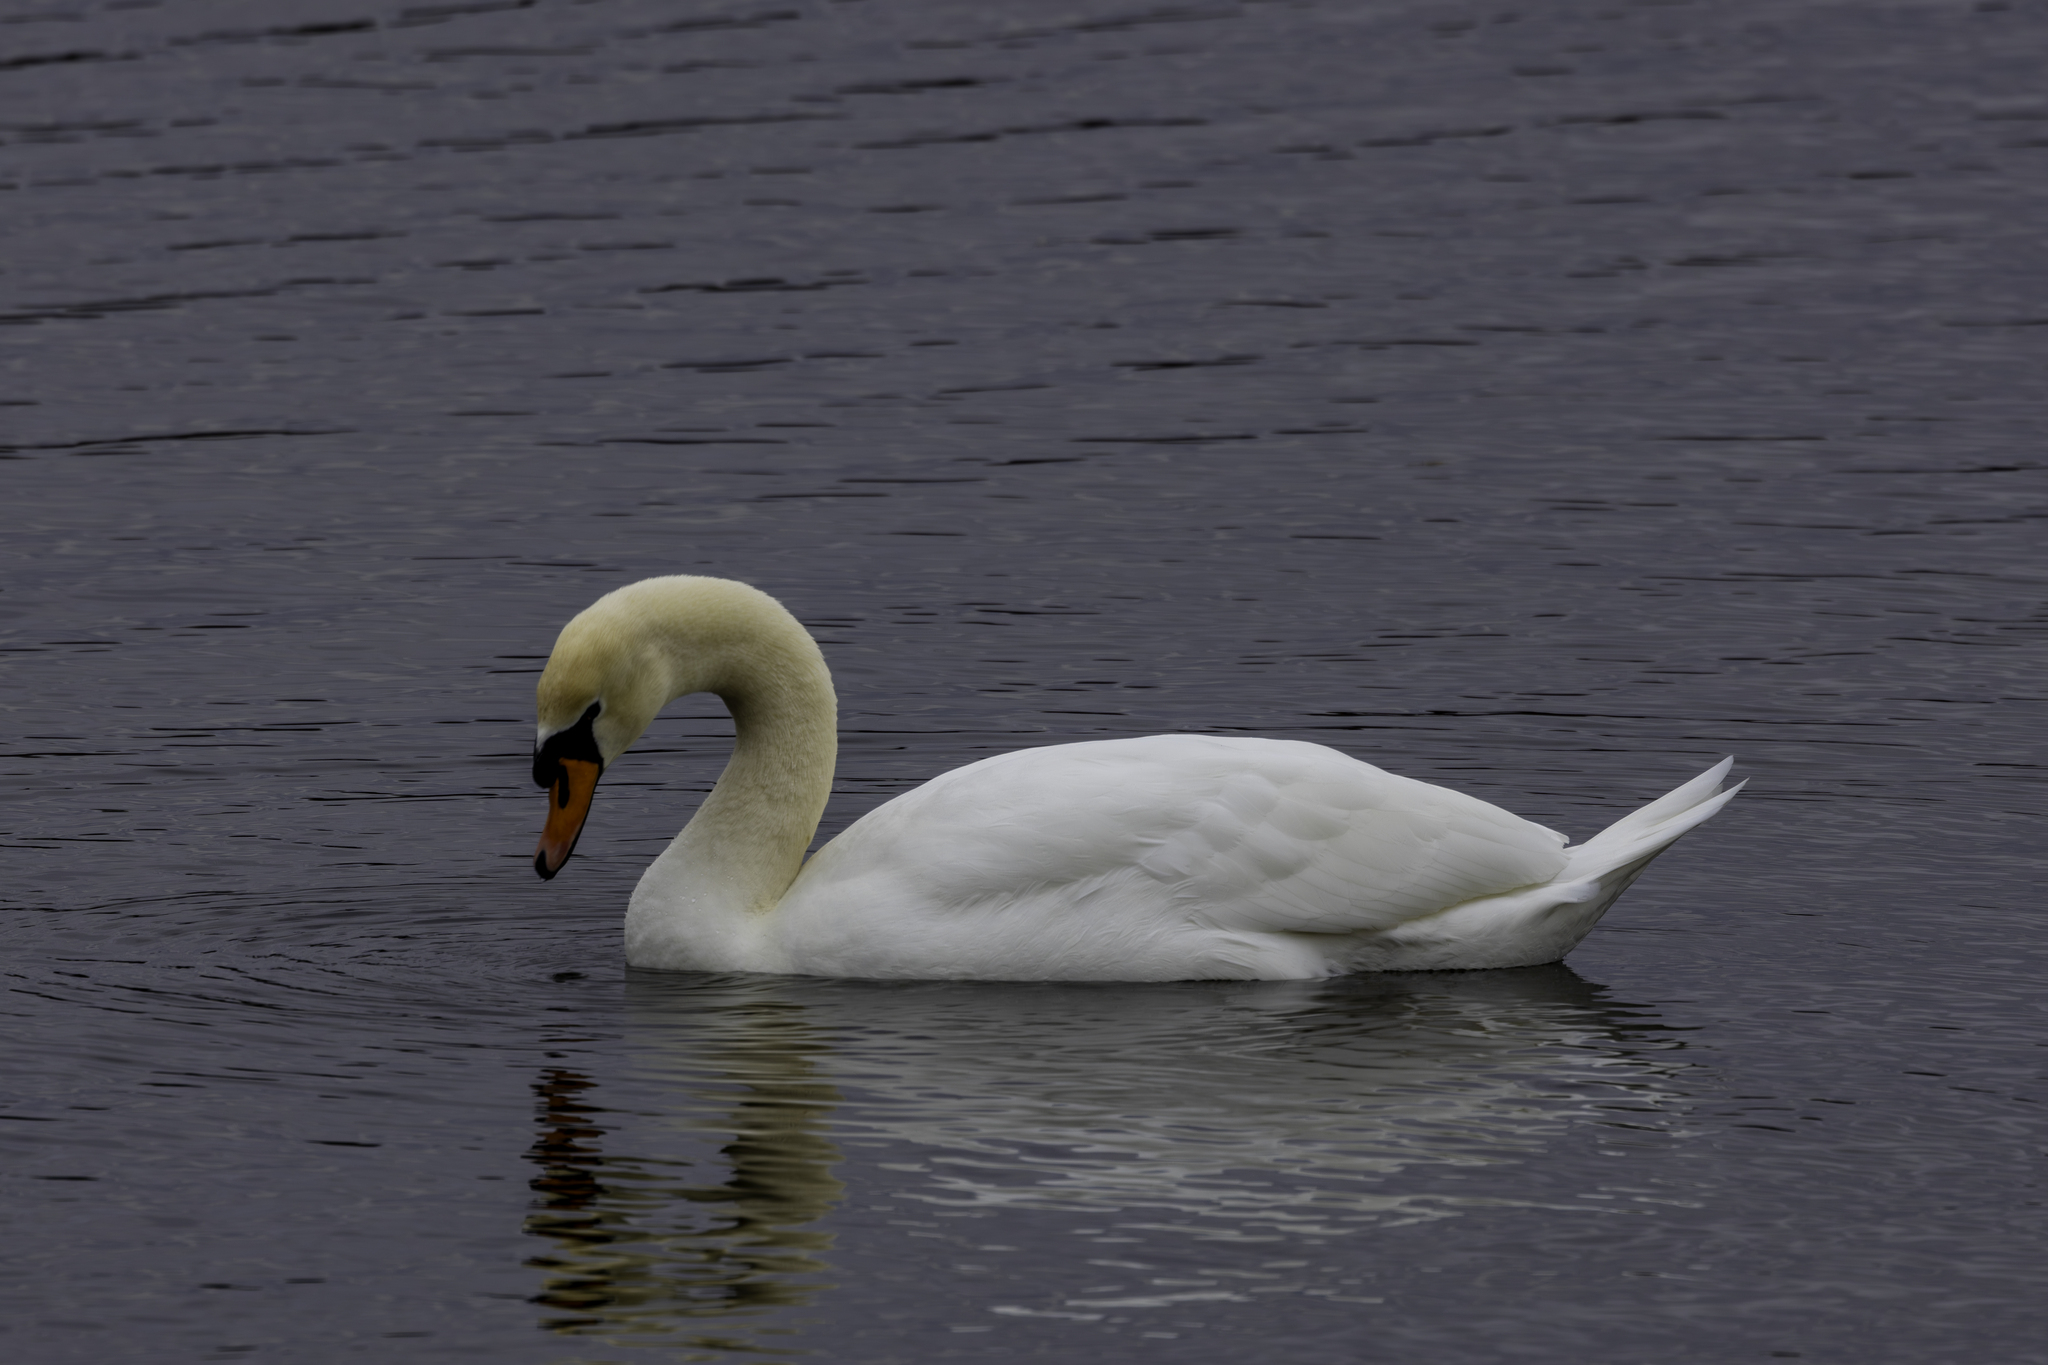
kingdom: Animalia
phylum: Chordata
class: Aves
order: Anseriformes
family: Anatidae
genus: Cygnus
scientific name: Cygnus olor
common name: Mute swan
